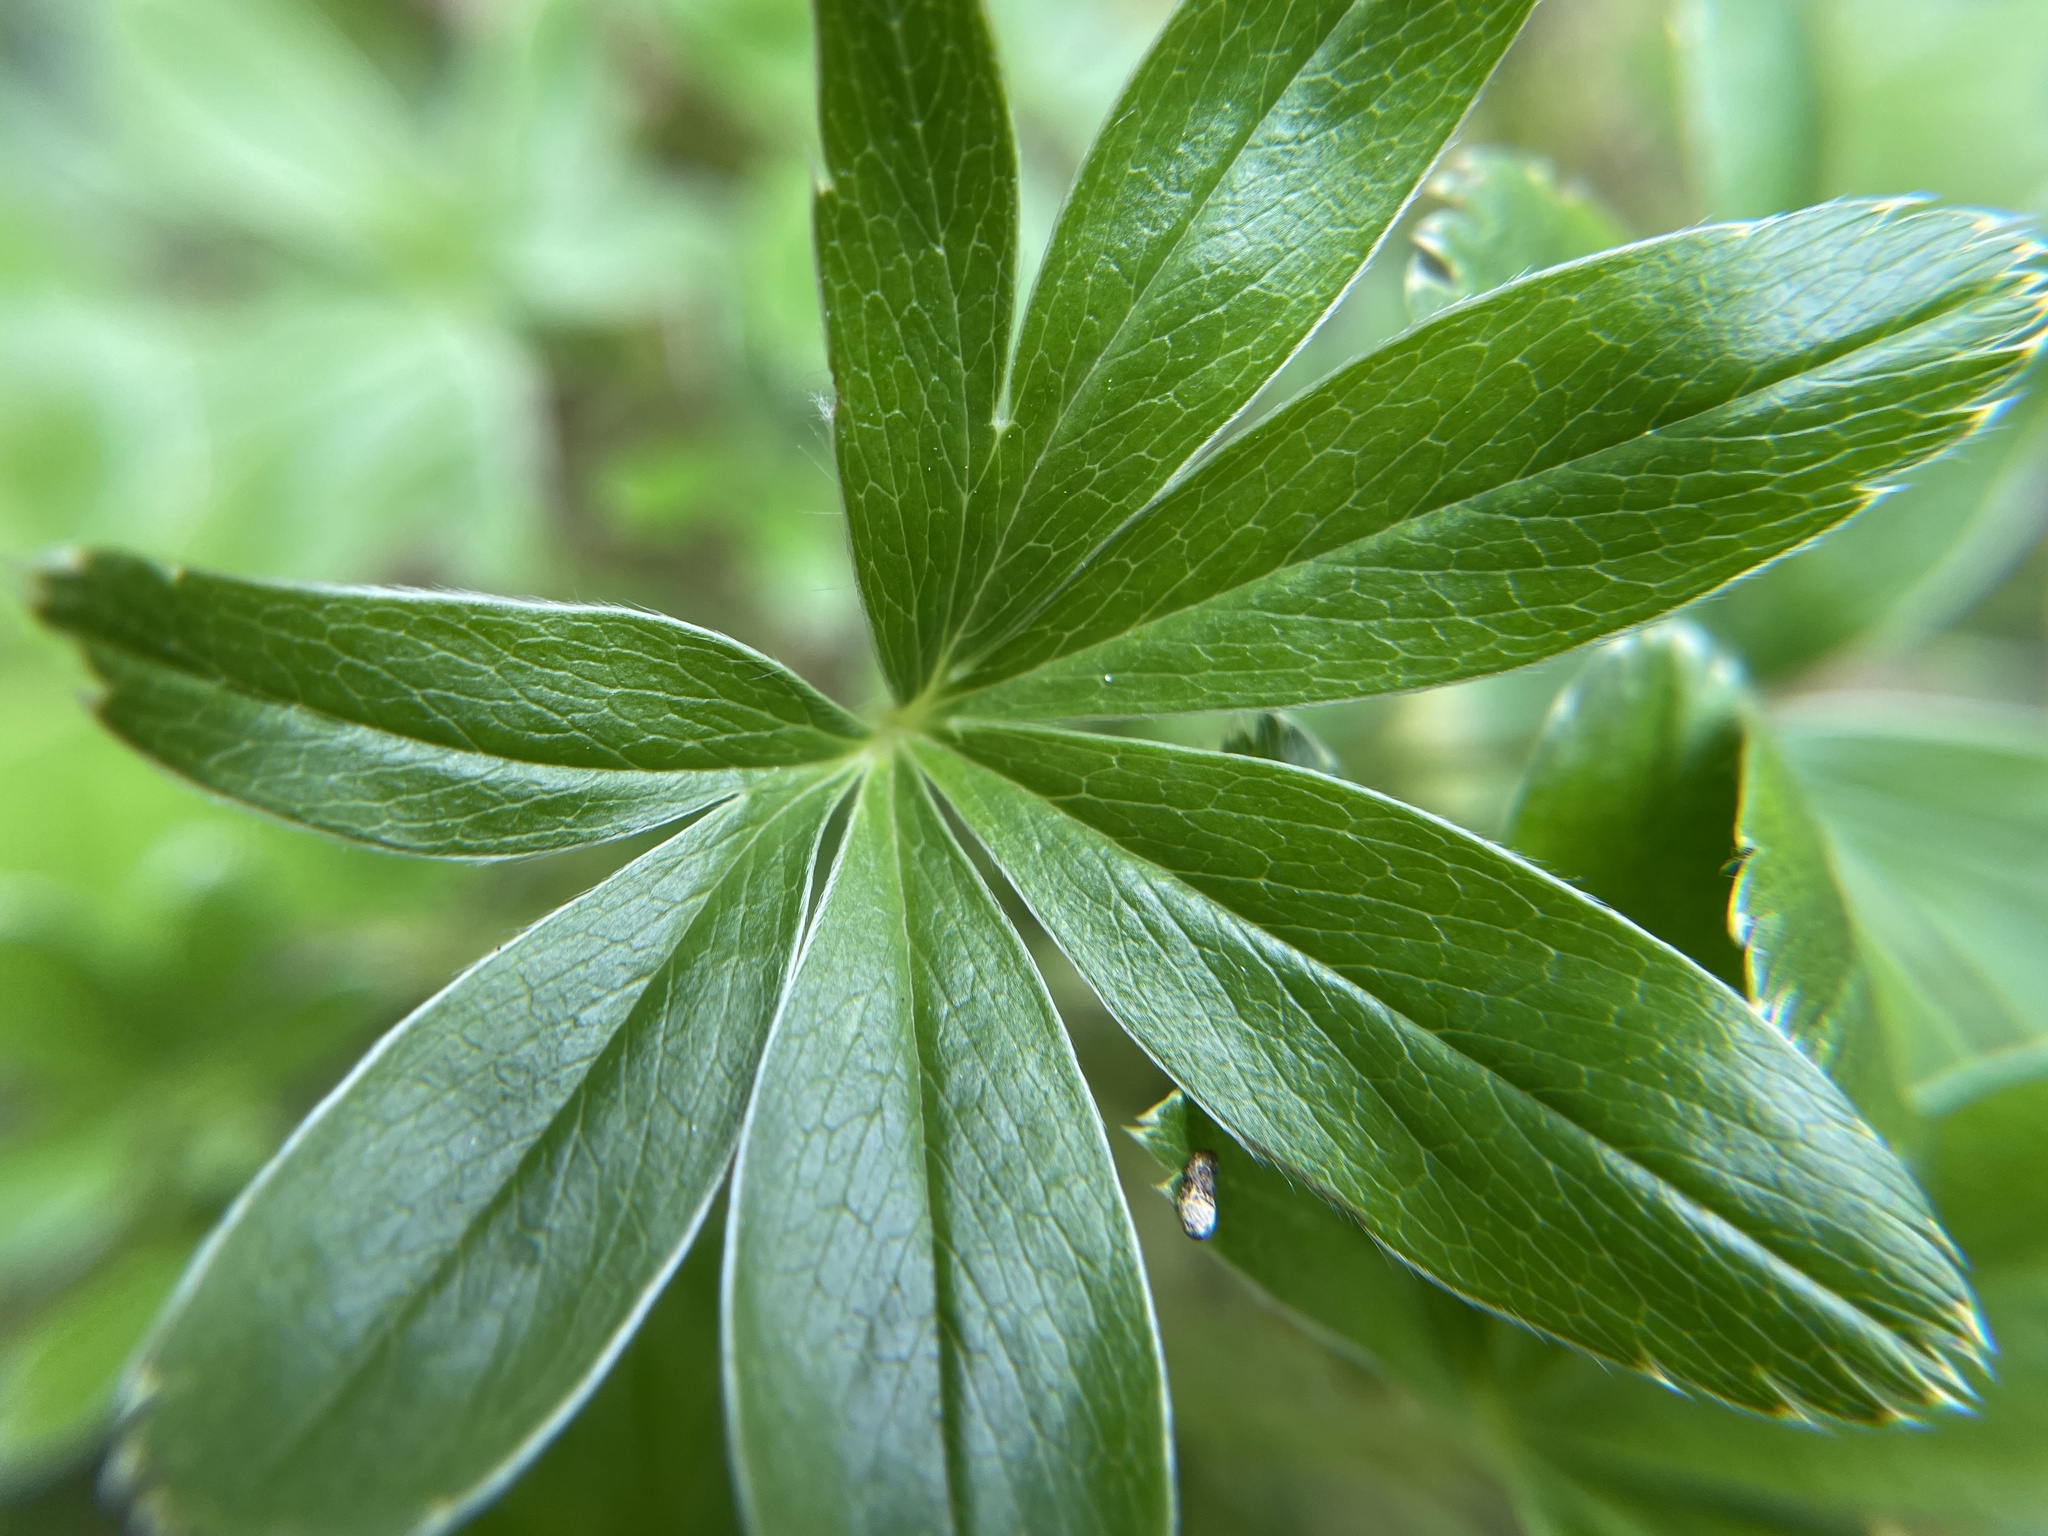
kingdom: Plantae
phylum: Tracheophyta
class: Magnoliopsida
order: Rosales
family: Rosaceae
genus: Alchemilla
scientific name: Alchemilla alpina
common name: Alpine lady's-mantle
